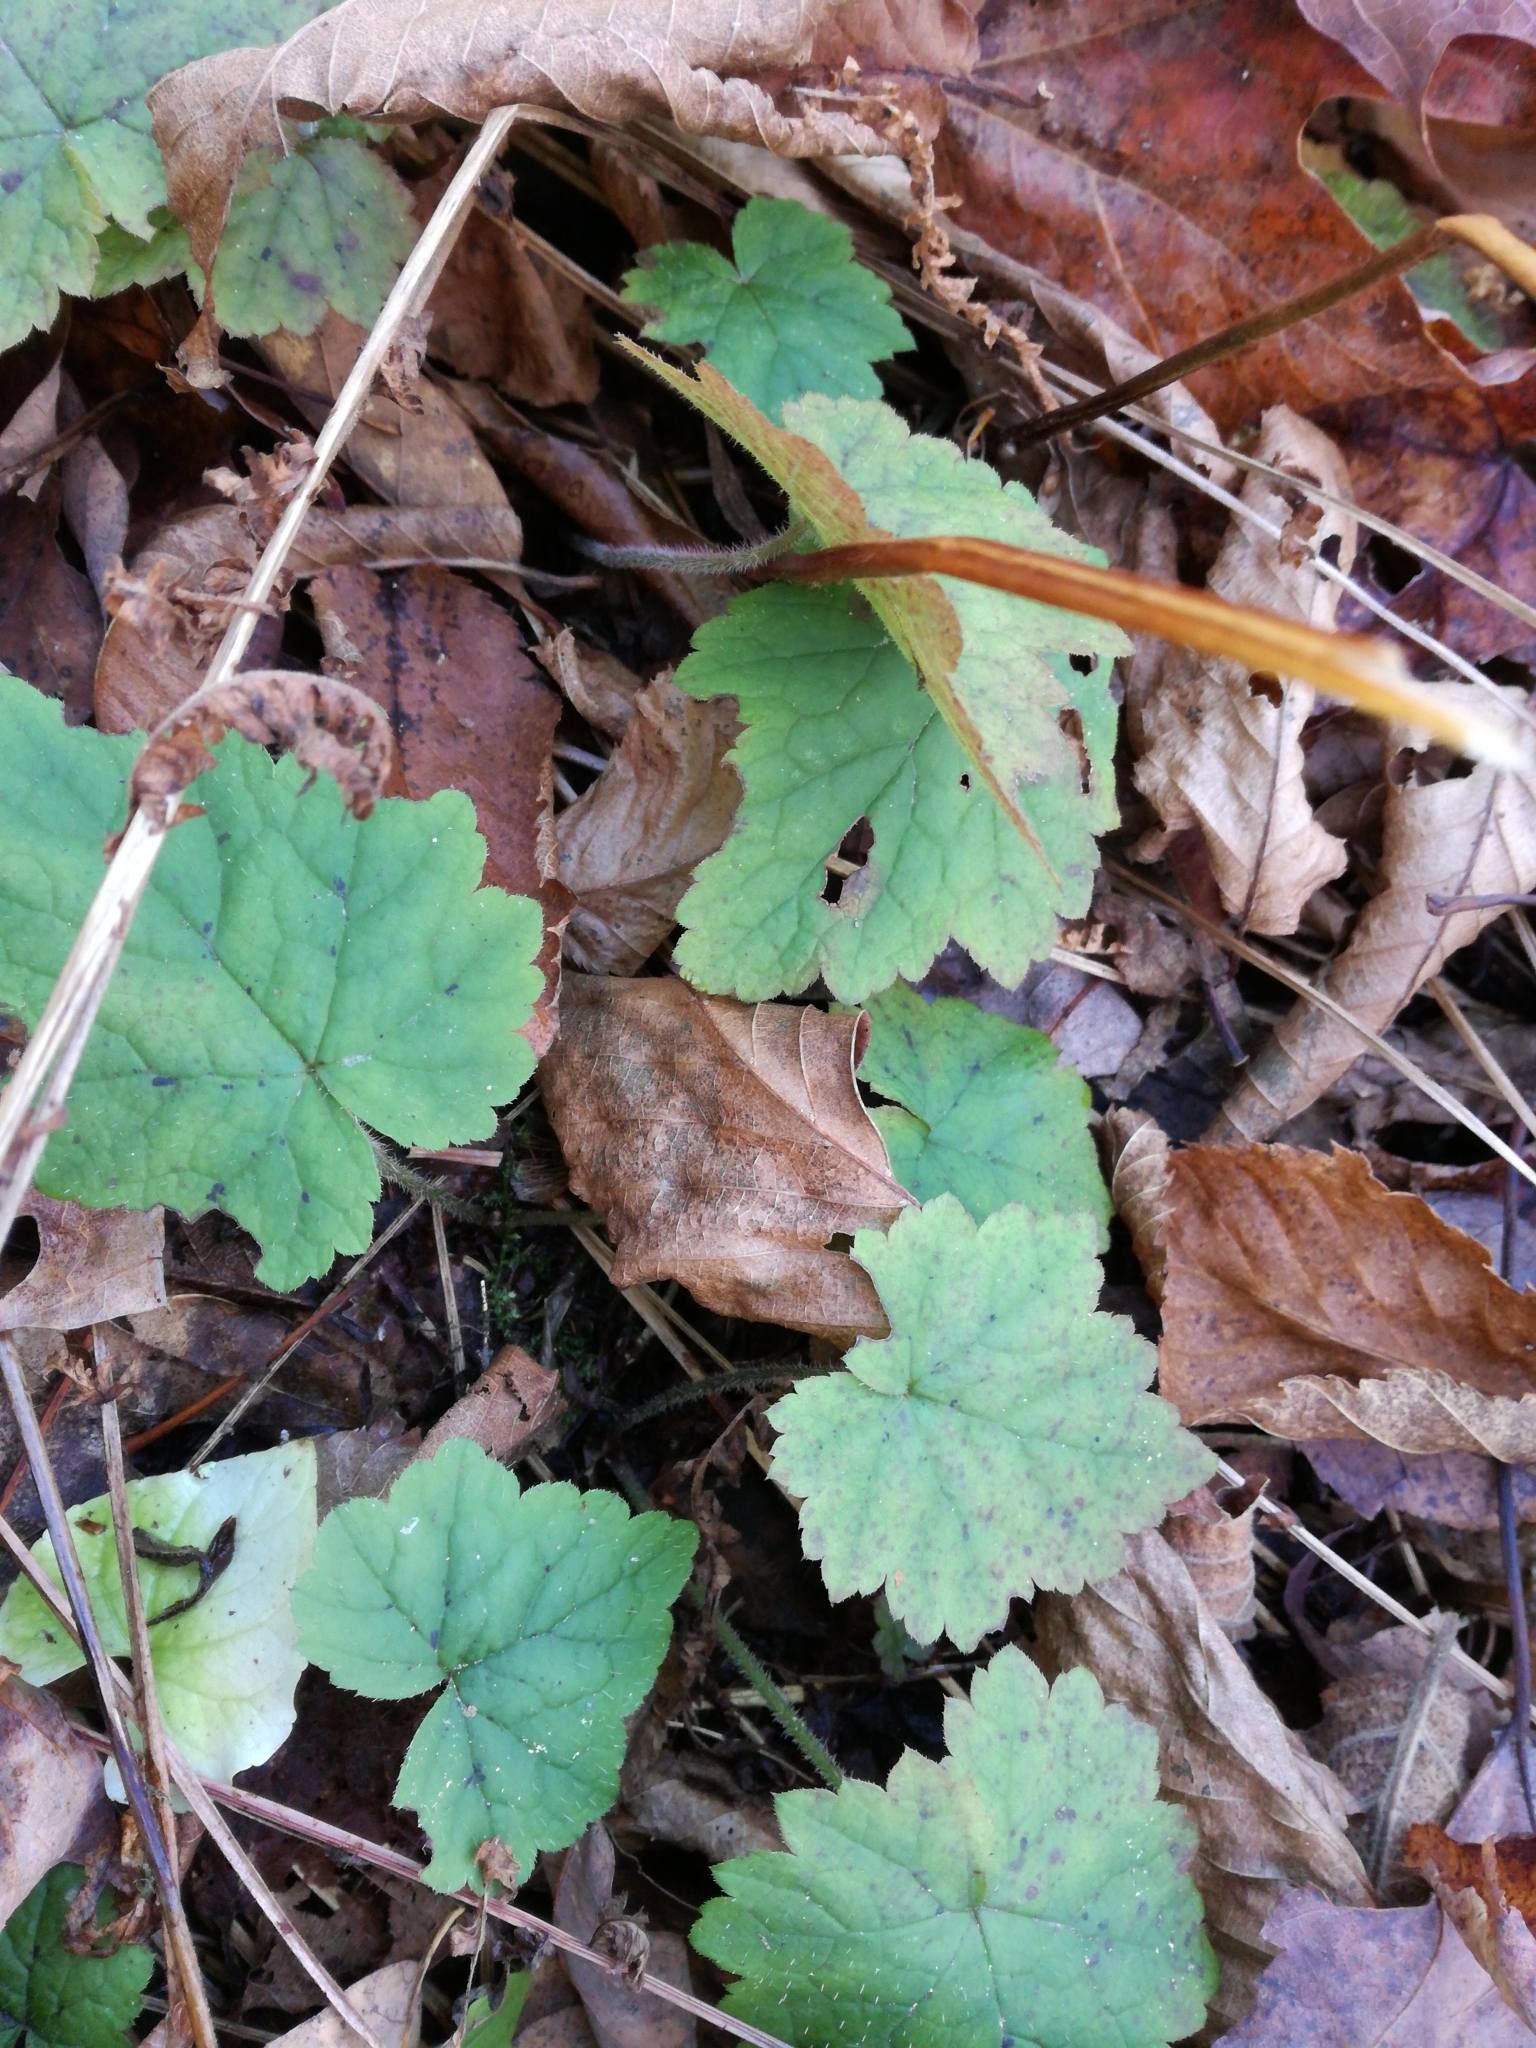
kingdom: Plantae
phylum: Tracheophyta
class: Magnoliopsida
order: Saxifragales
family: Saxifragaceae
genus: Tiarella
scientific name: Tiarella stolonifera
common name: Stoloniferous foamflower
